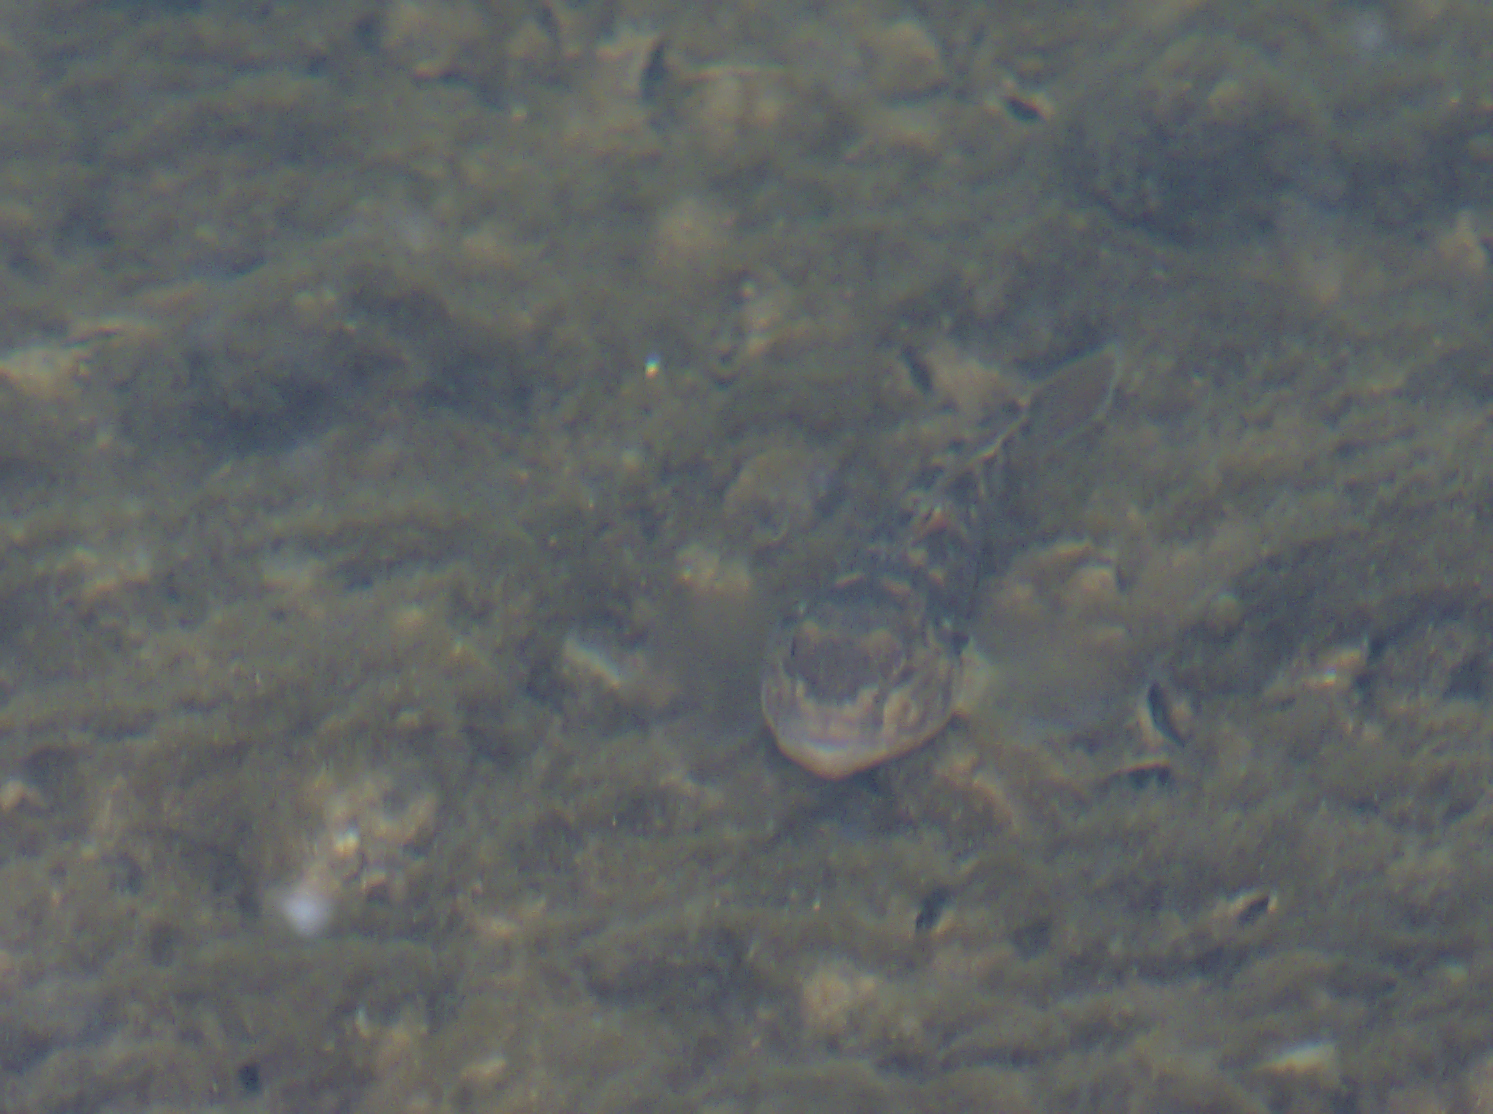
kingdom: Animalia
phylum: Chordata
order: Perciformes
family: Gobiidae
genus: Neogobius
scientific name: Neogobius melanostomus
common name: Round goby
